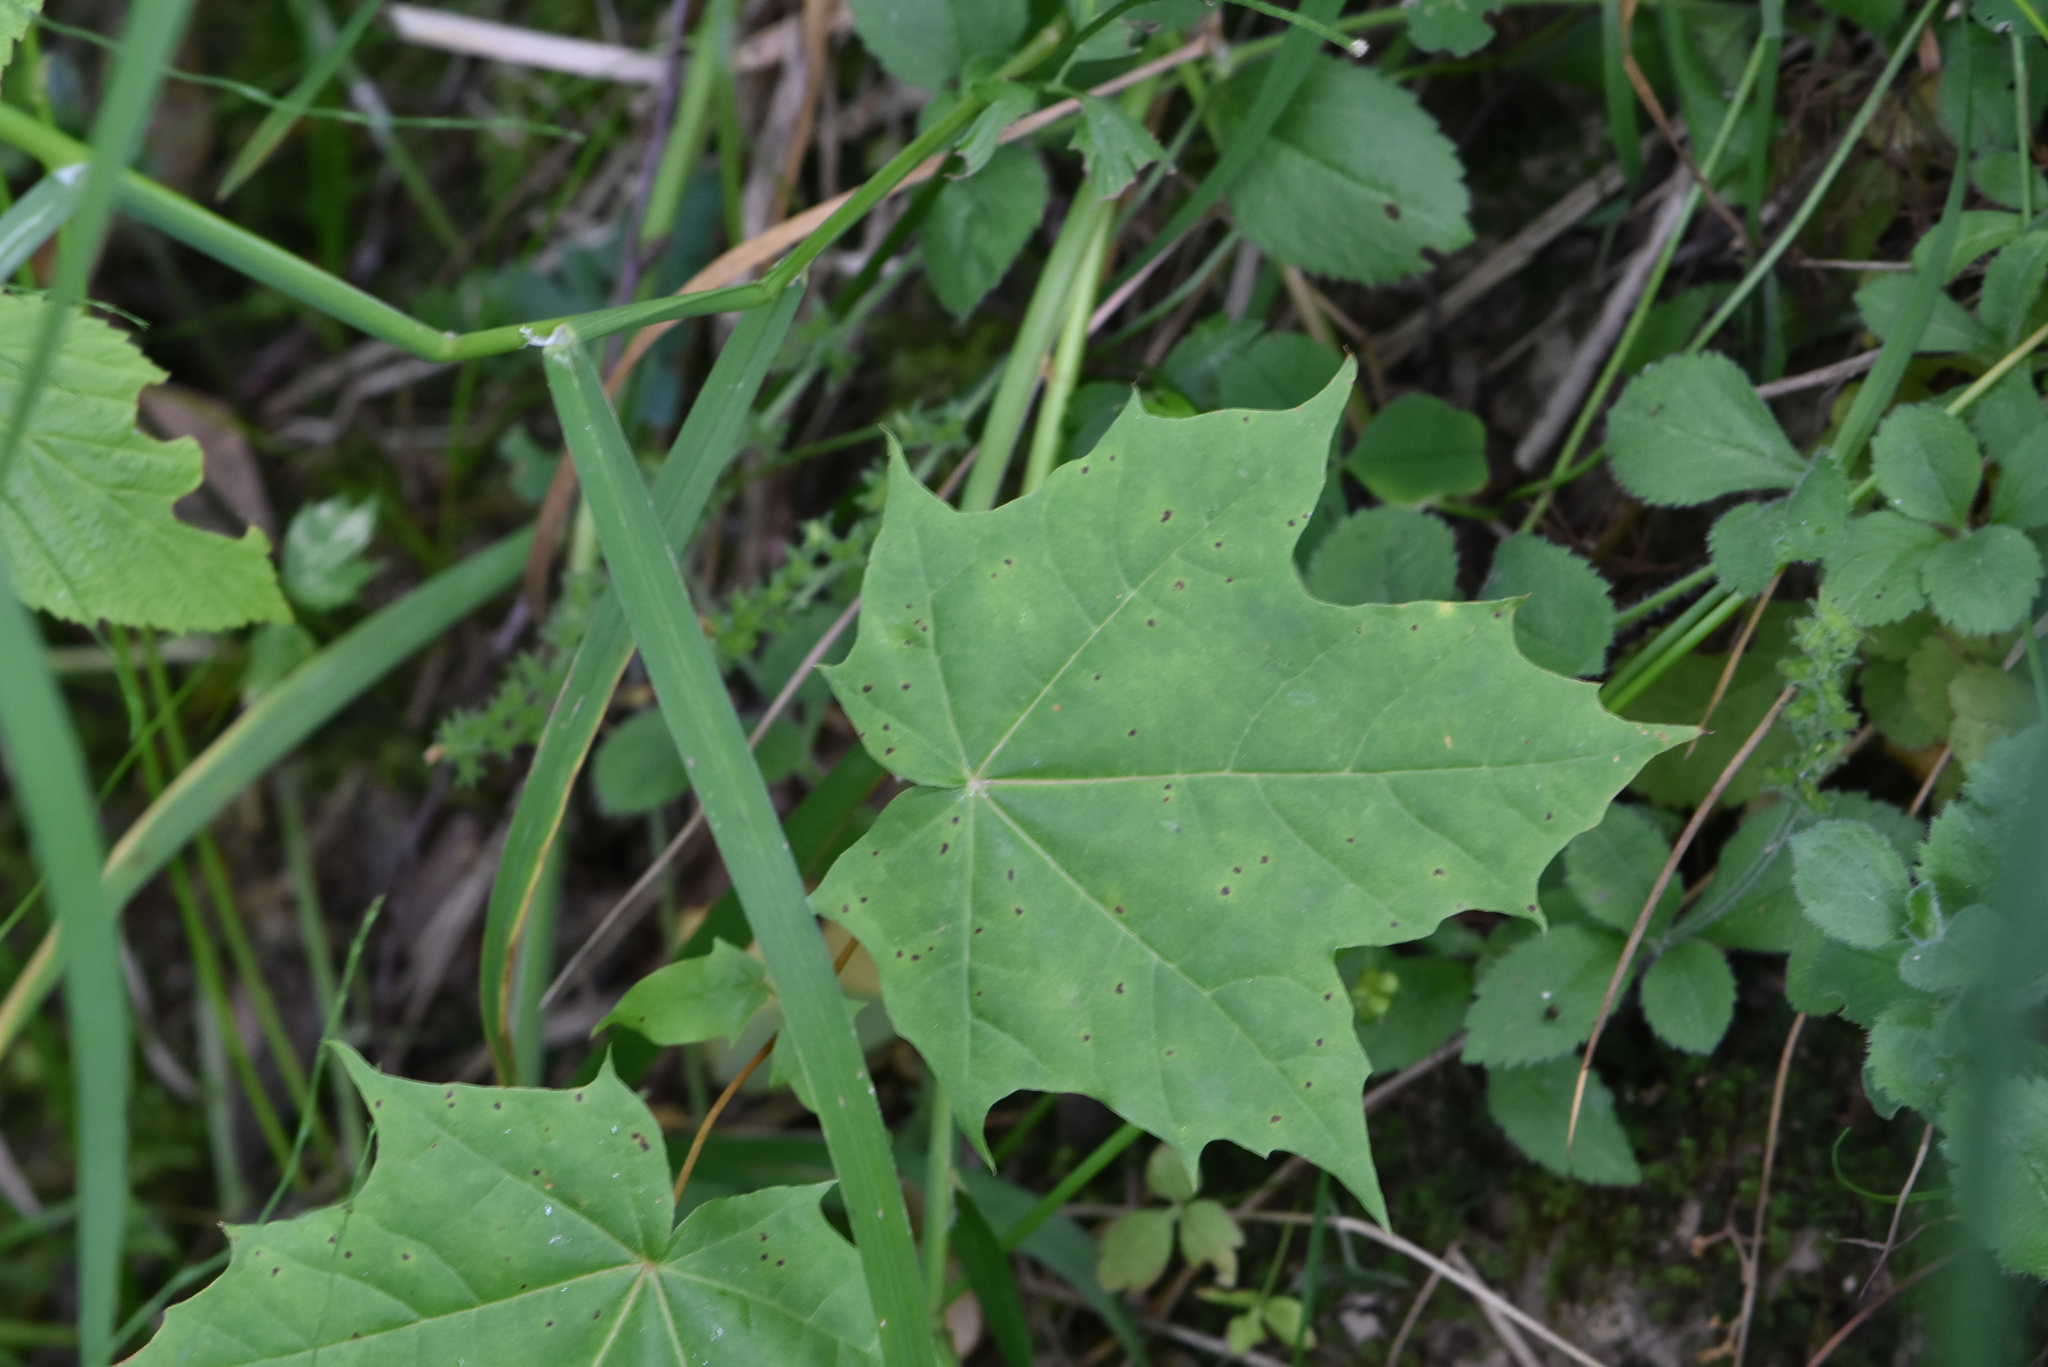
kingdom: Plantae
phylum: Tracheophyta
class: Magnoliopsida
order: Sapindales
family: Sapindaceae
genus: Acer
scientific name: Acer platanoides
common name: Norway maple
